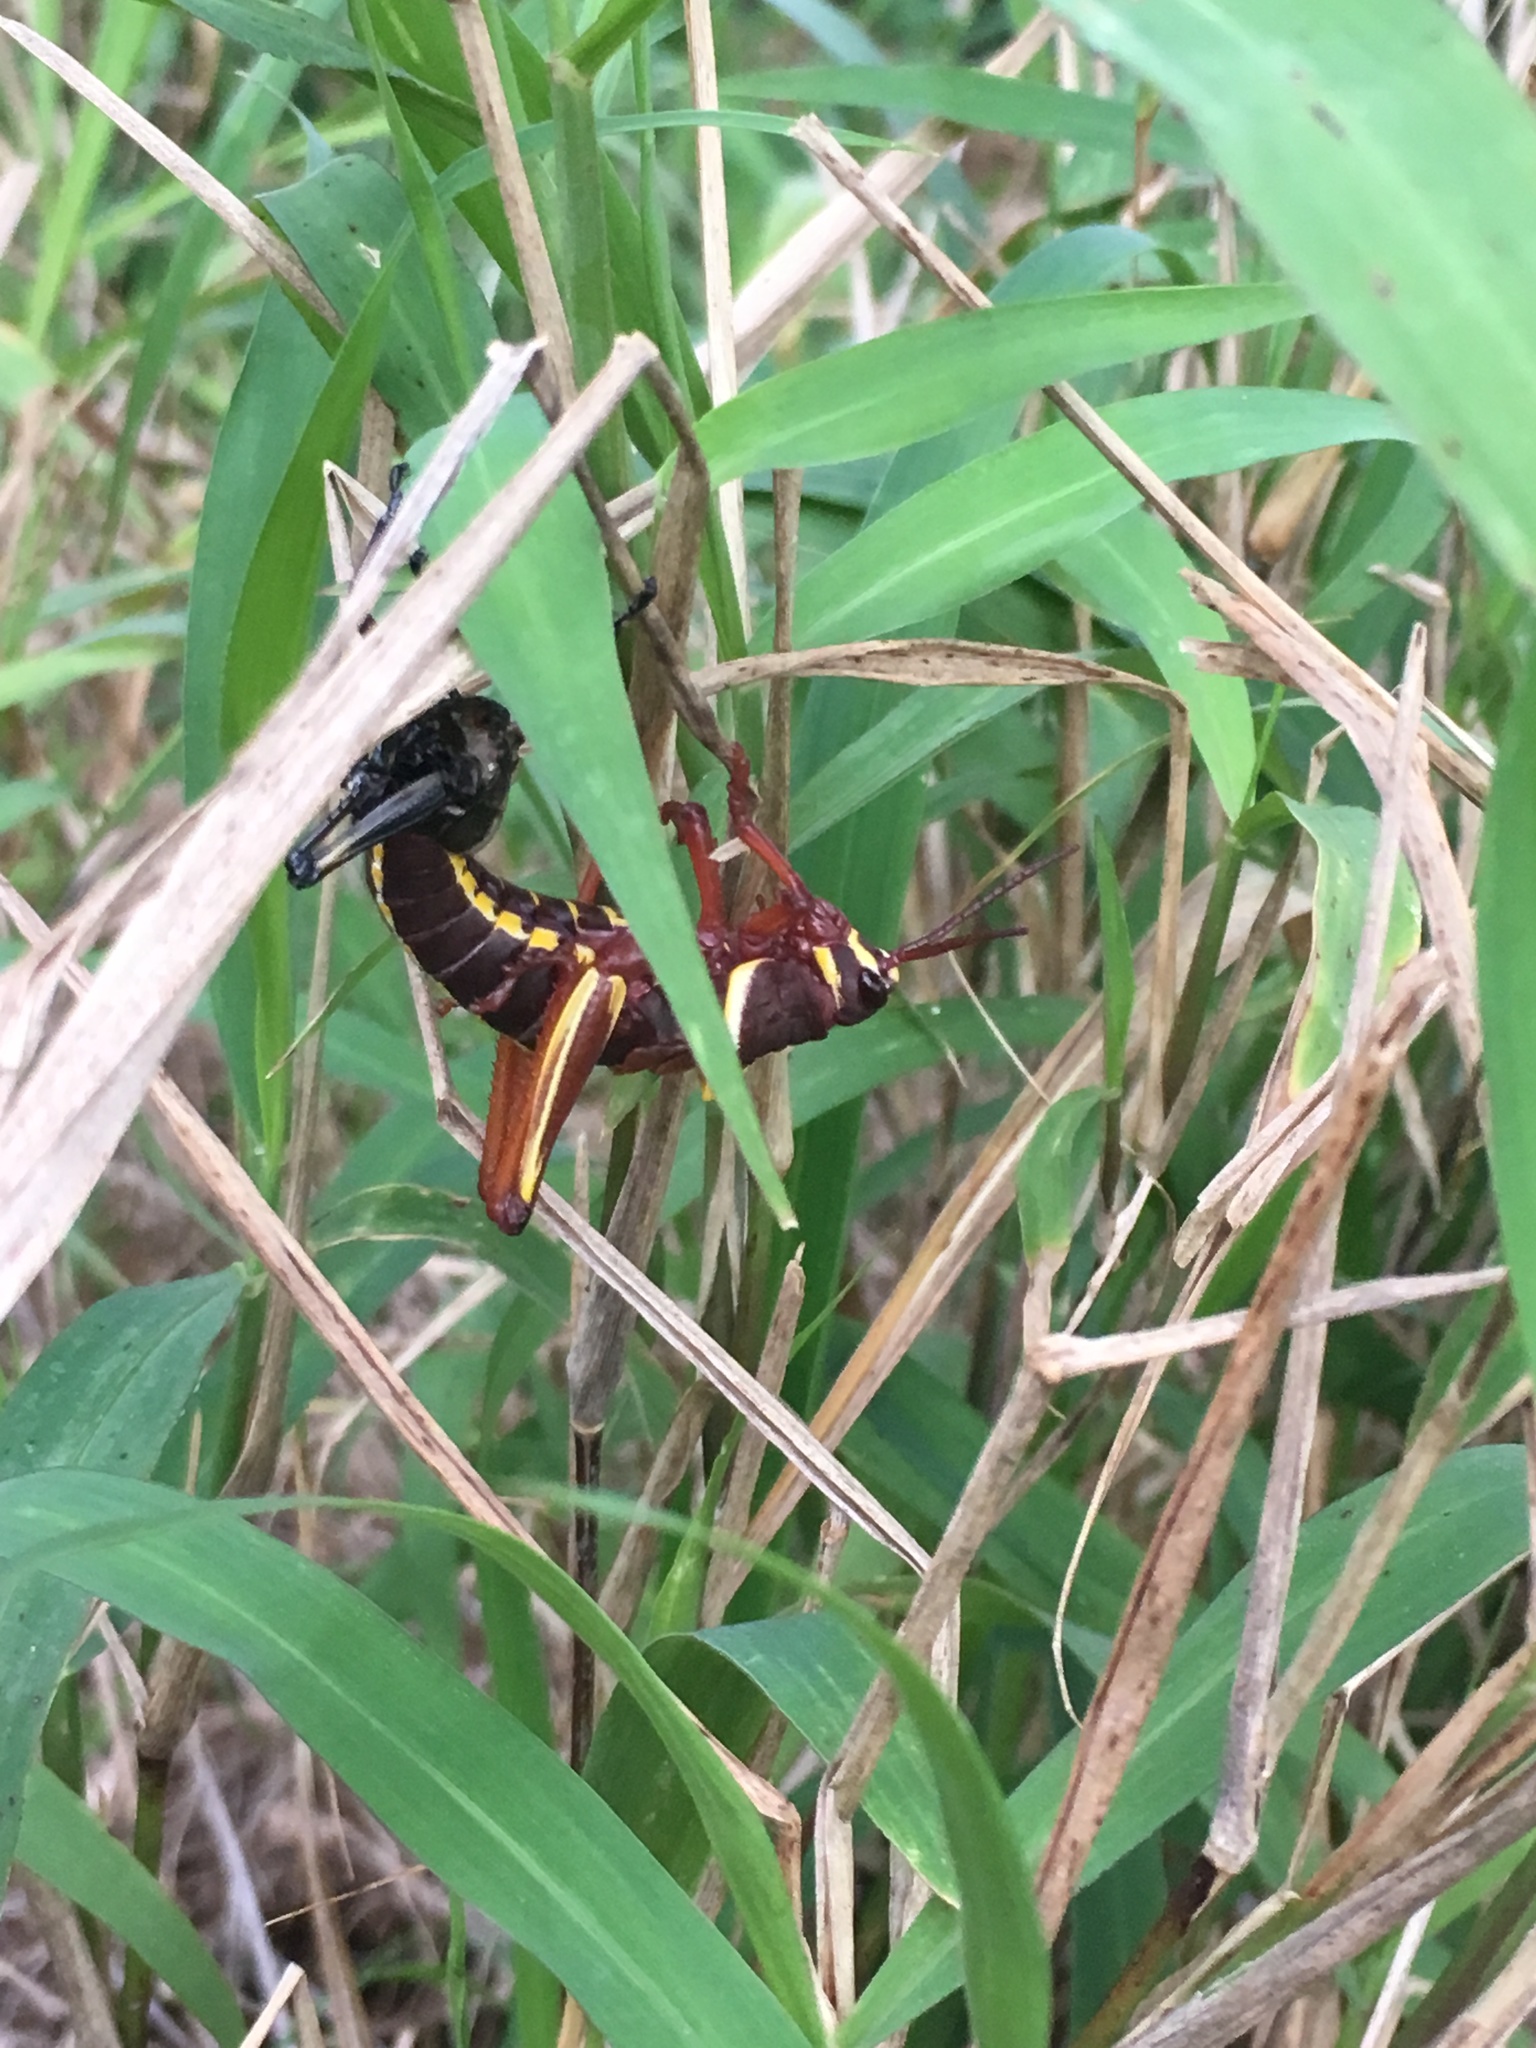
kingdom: Animalia
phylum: Arthropoda
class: Insecta
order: Orthoptera
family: Romaleidae
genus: Romalea
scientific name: Romalea microptera
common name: Eastern lubber grasshopper
